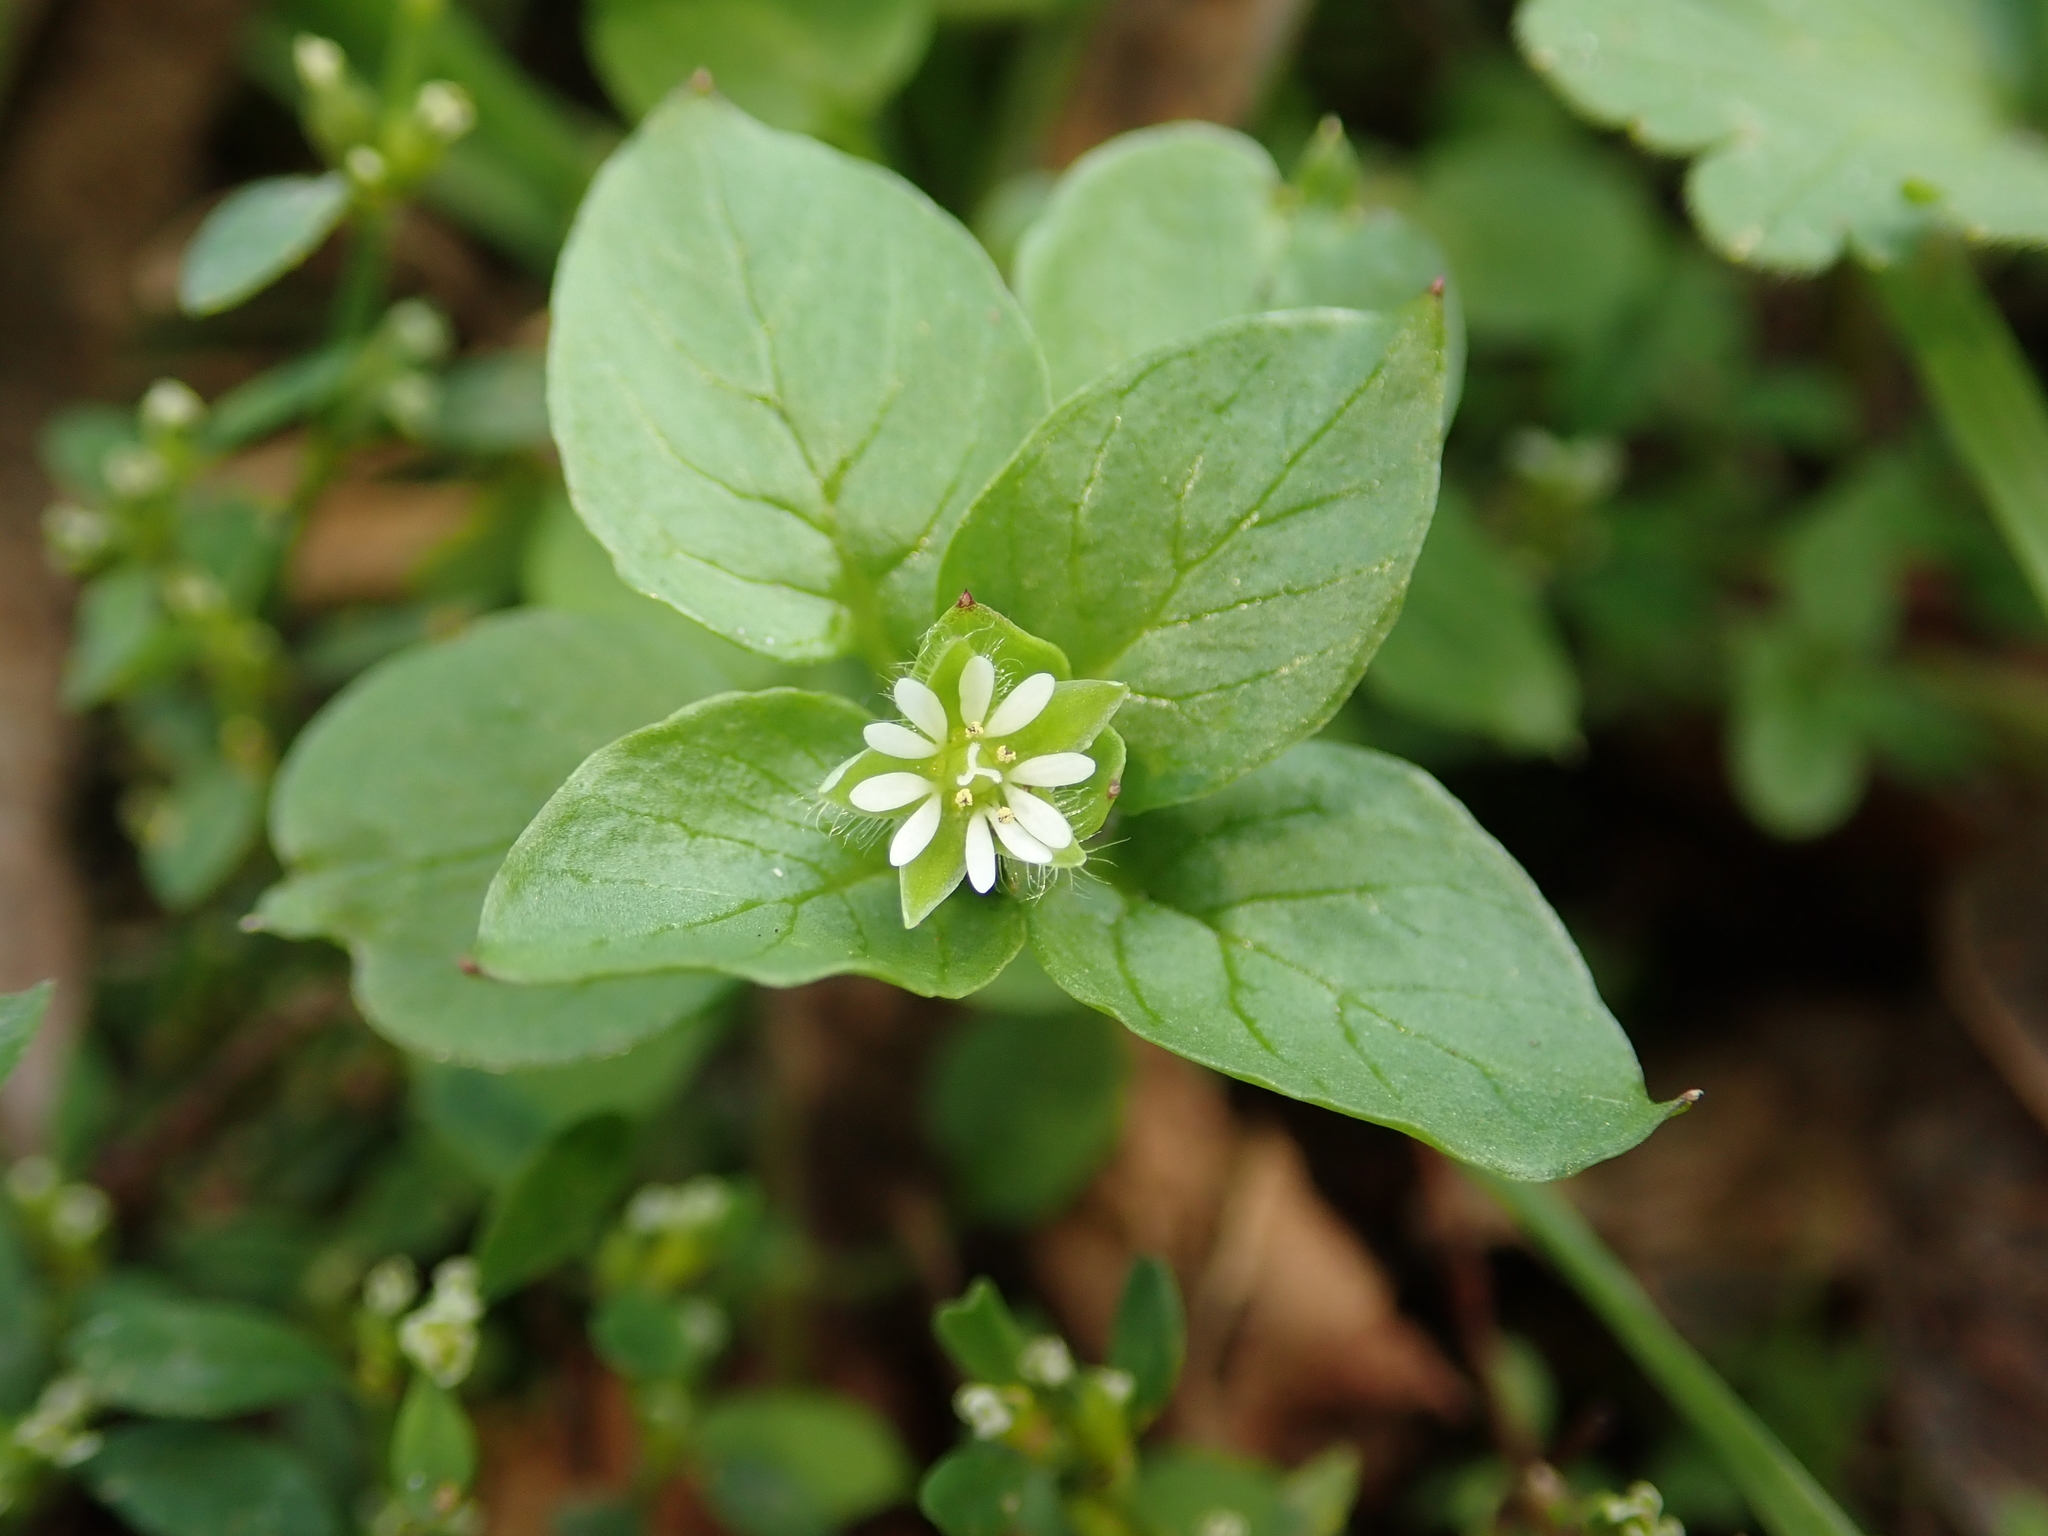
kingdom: Plantae
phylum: Tracheophyta
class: Magnoliopsida
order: Caryophyllales
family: Caryophyllaceae
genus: Stellaria
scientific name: Stellaria media
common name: Common chickweed
